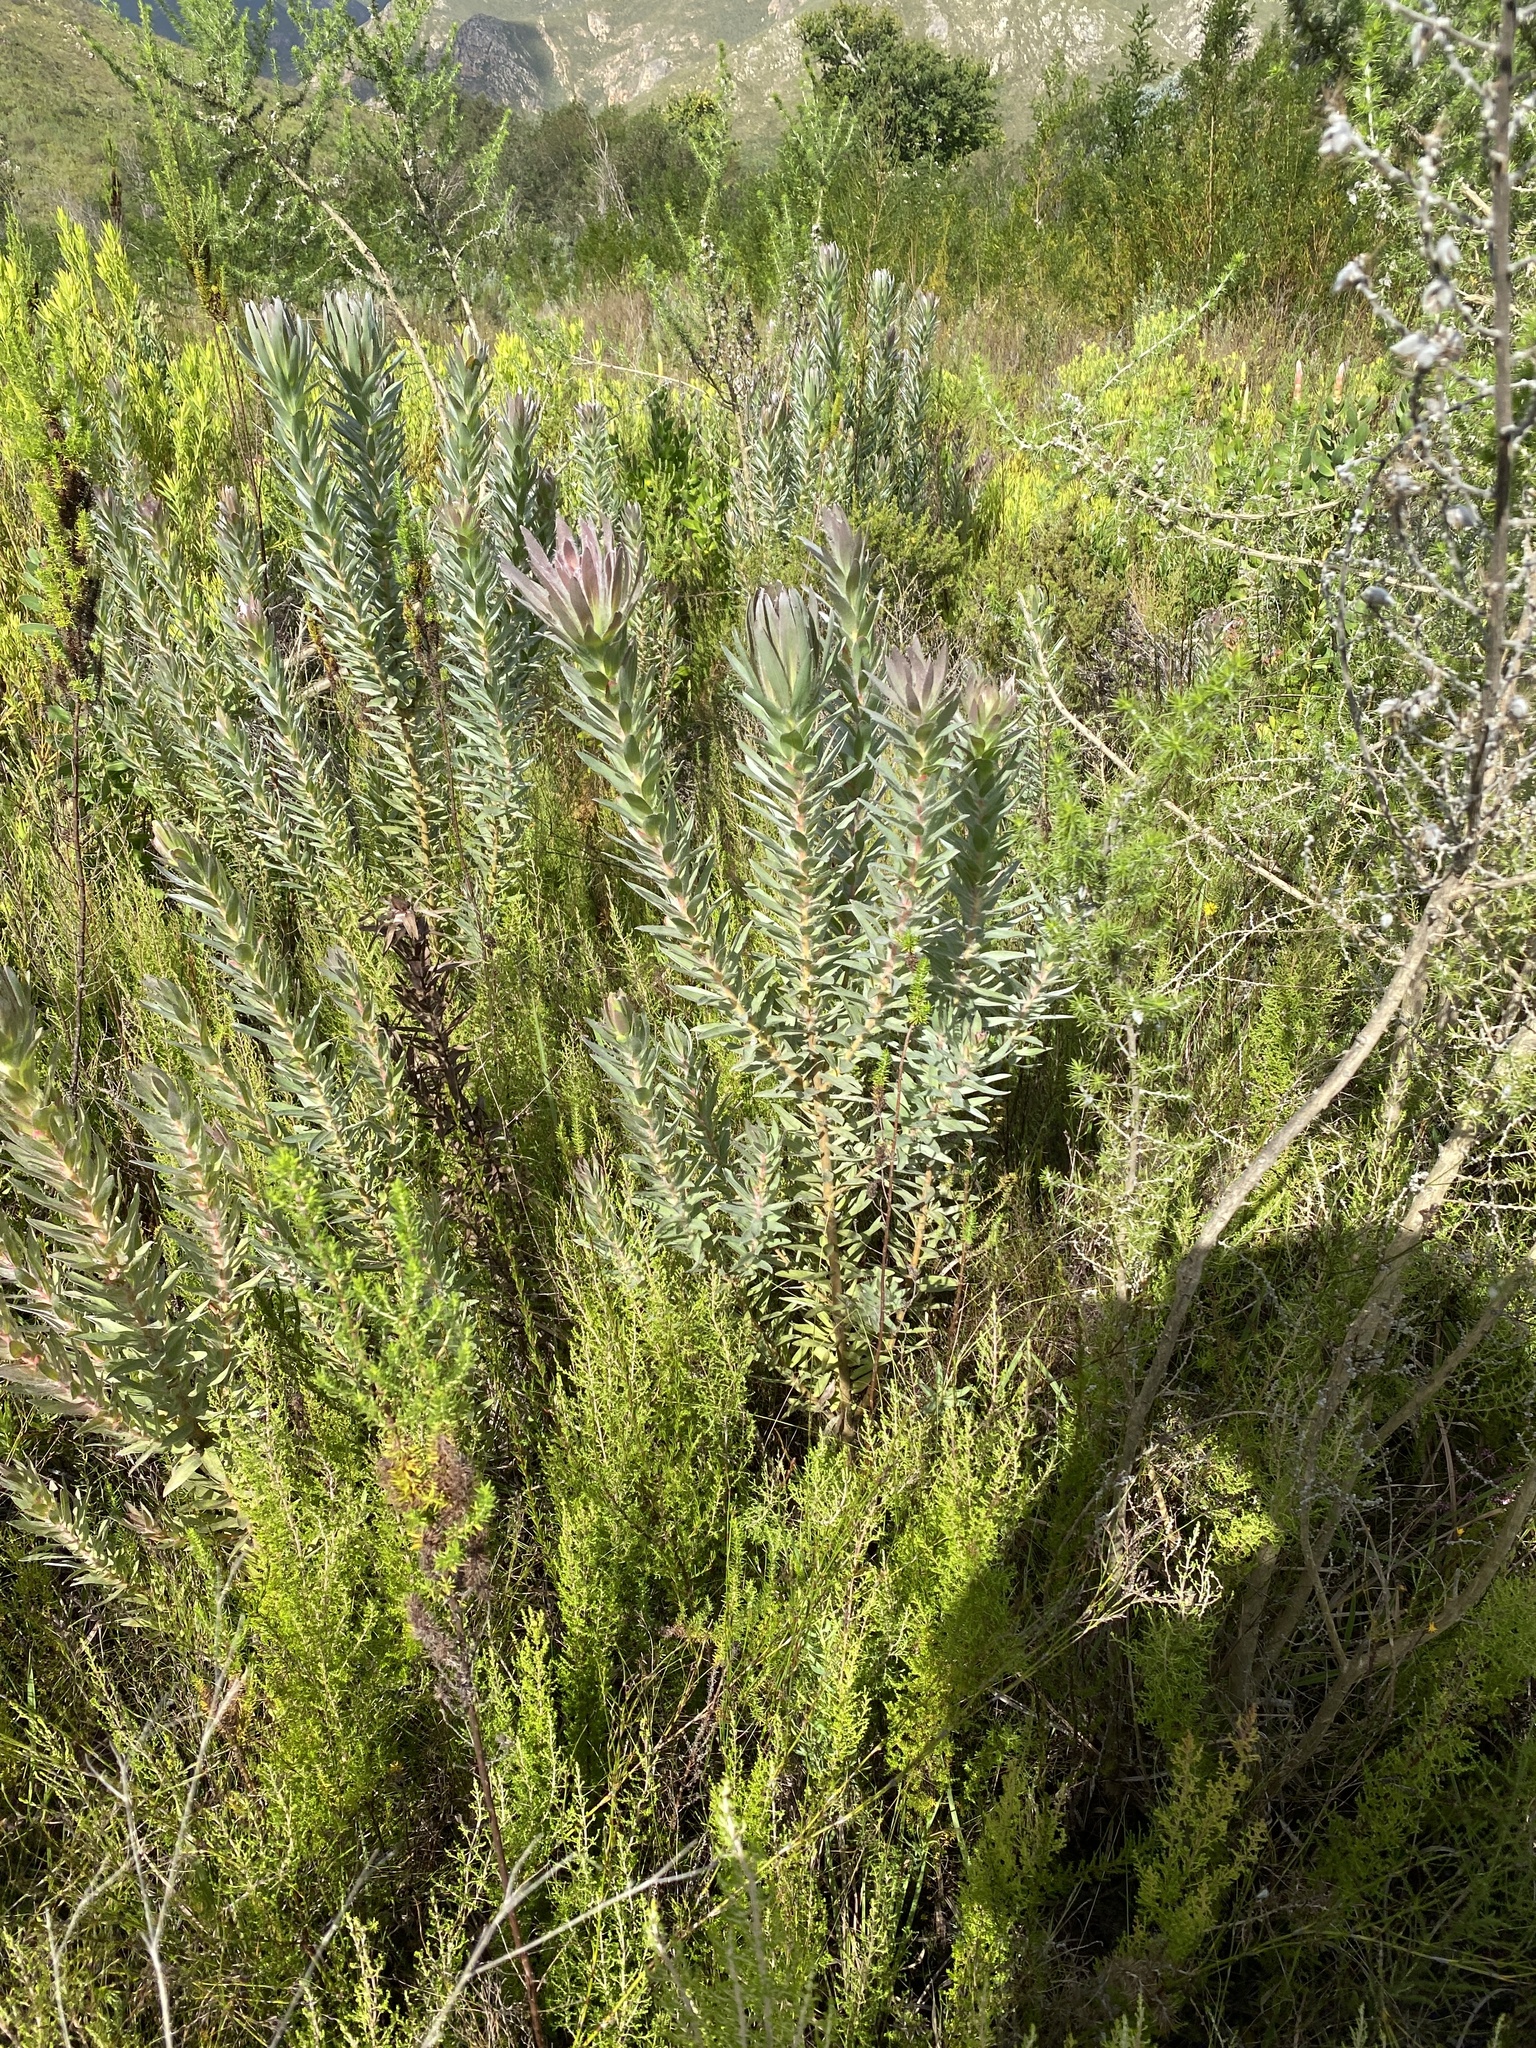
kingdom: Plantae
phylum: Tracheophyta
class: Magnoliopsida
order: Proteales
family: Proteaceae
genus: Protea
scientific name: Protea coronata
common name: Green sugarbush
